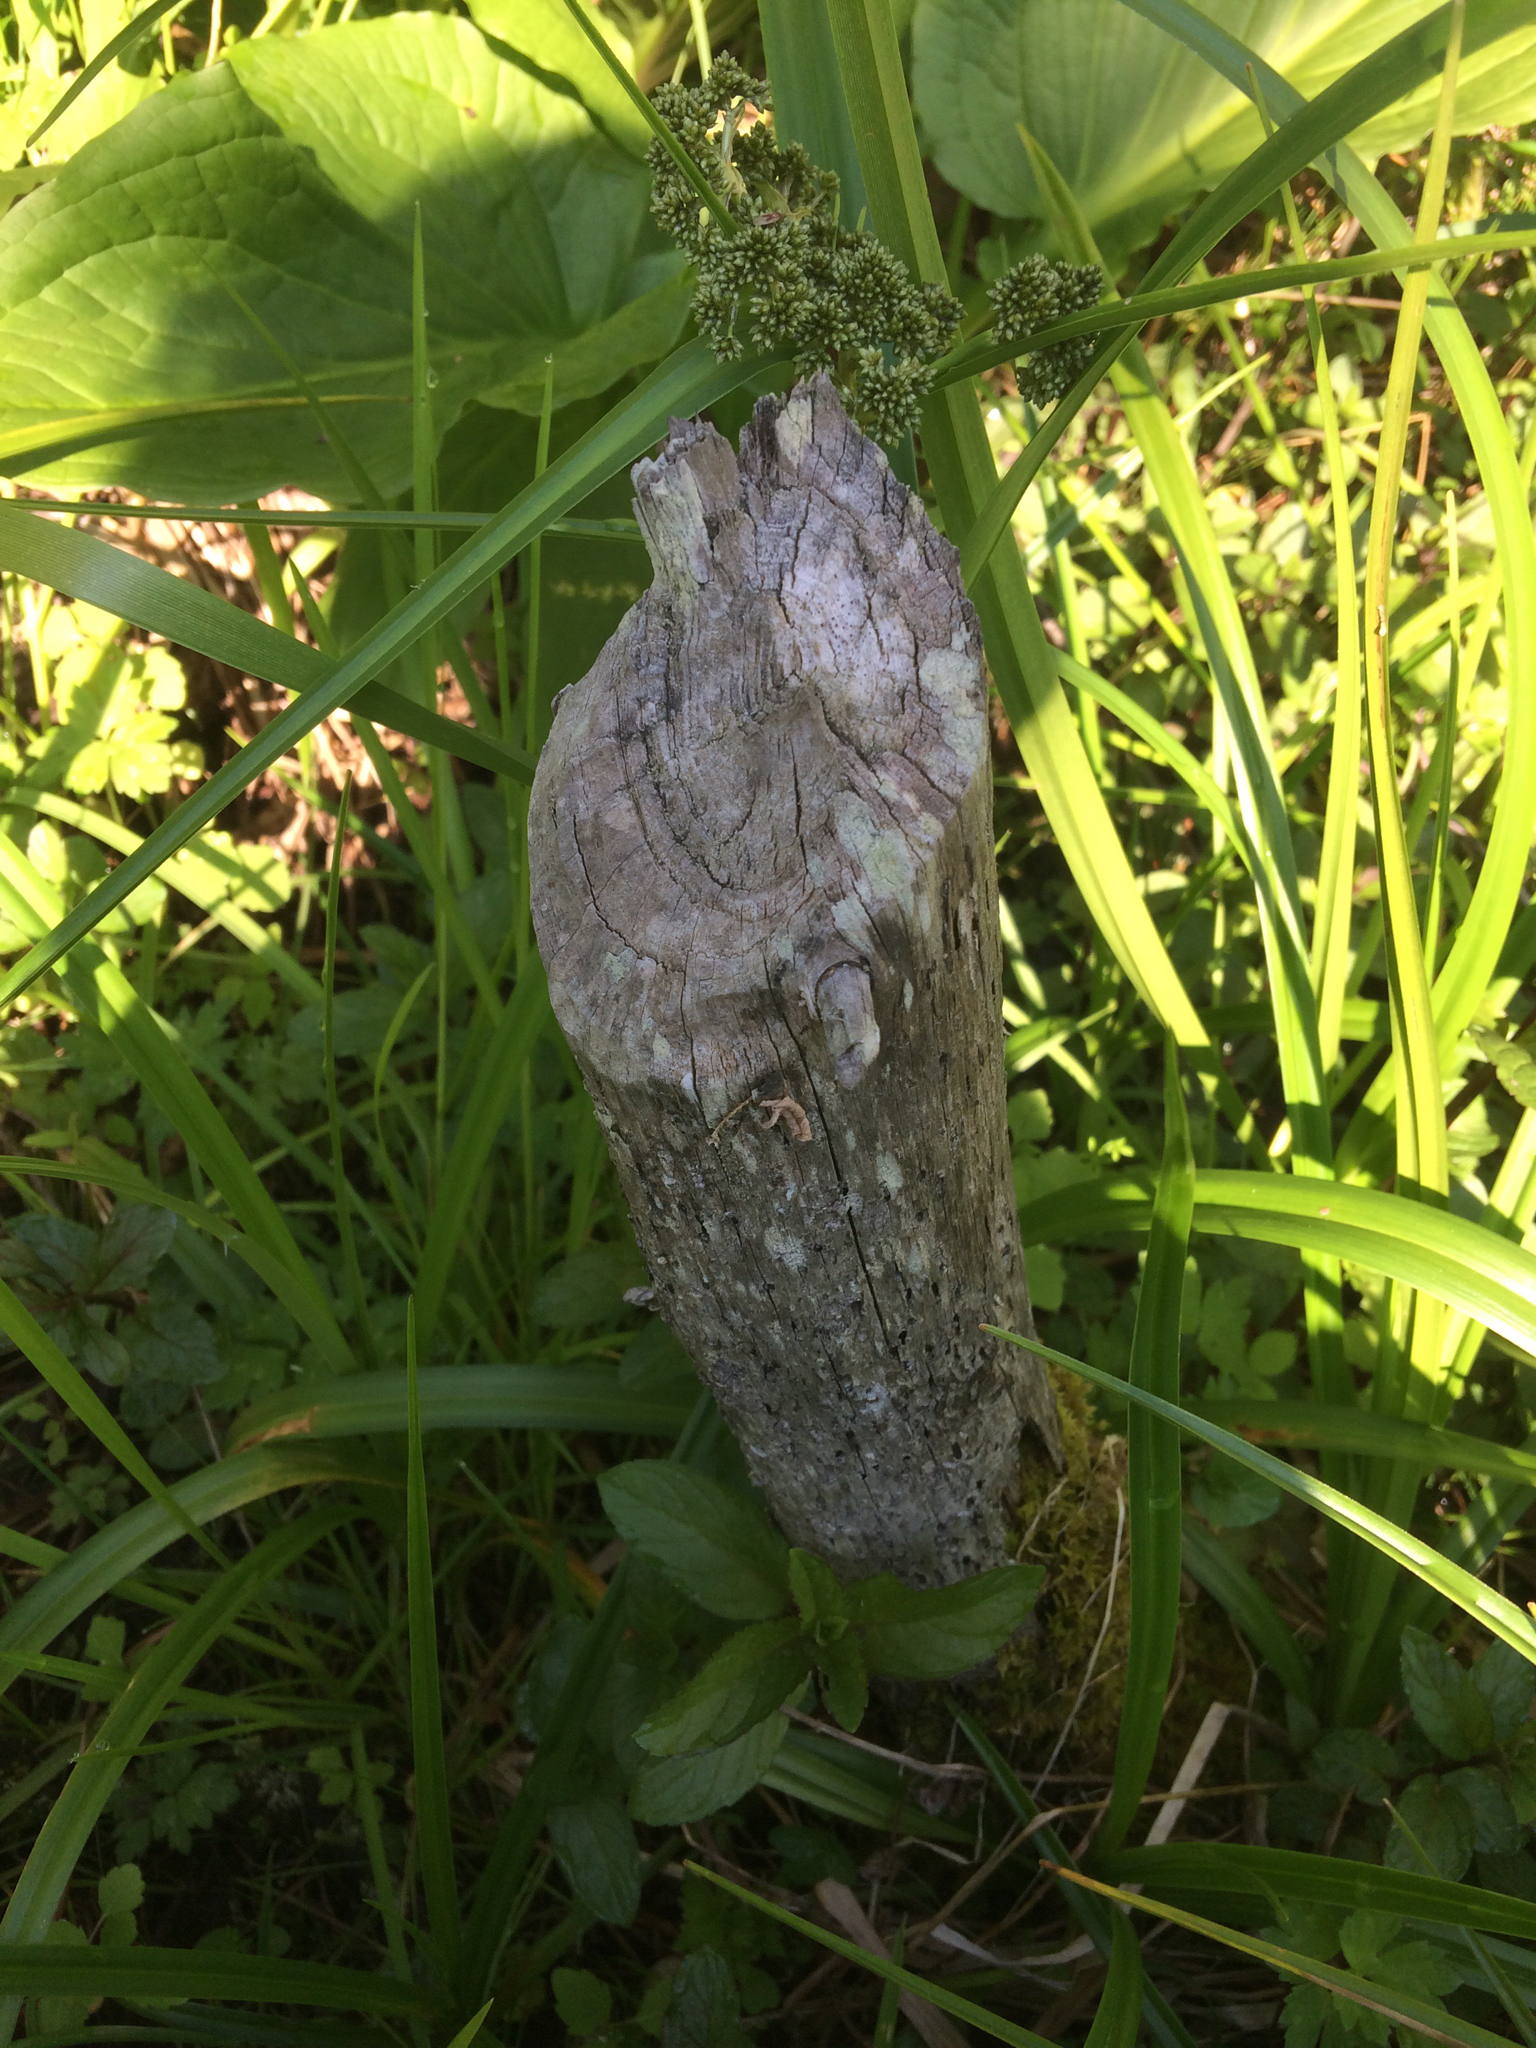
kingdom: Animalia
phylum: Chordata
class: Mammalia
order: Rodentia
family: Castoridae
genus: Castor
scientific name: Castor canadensis
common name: American beaver
